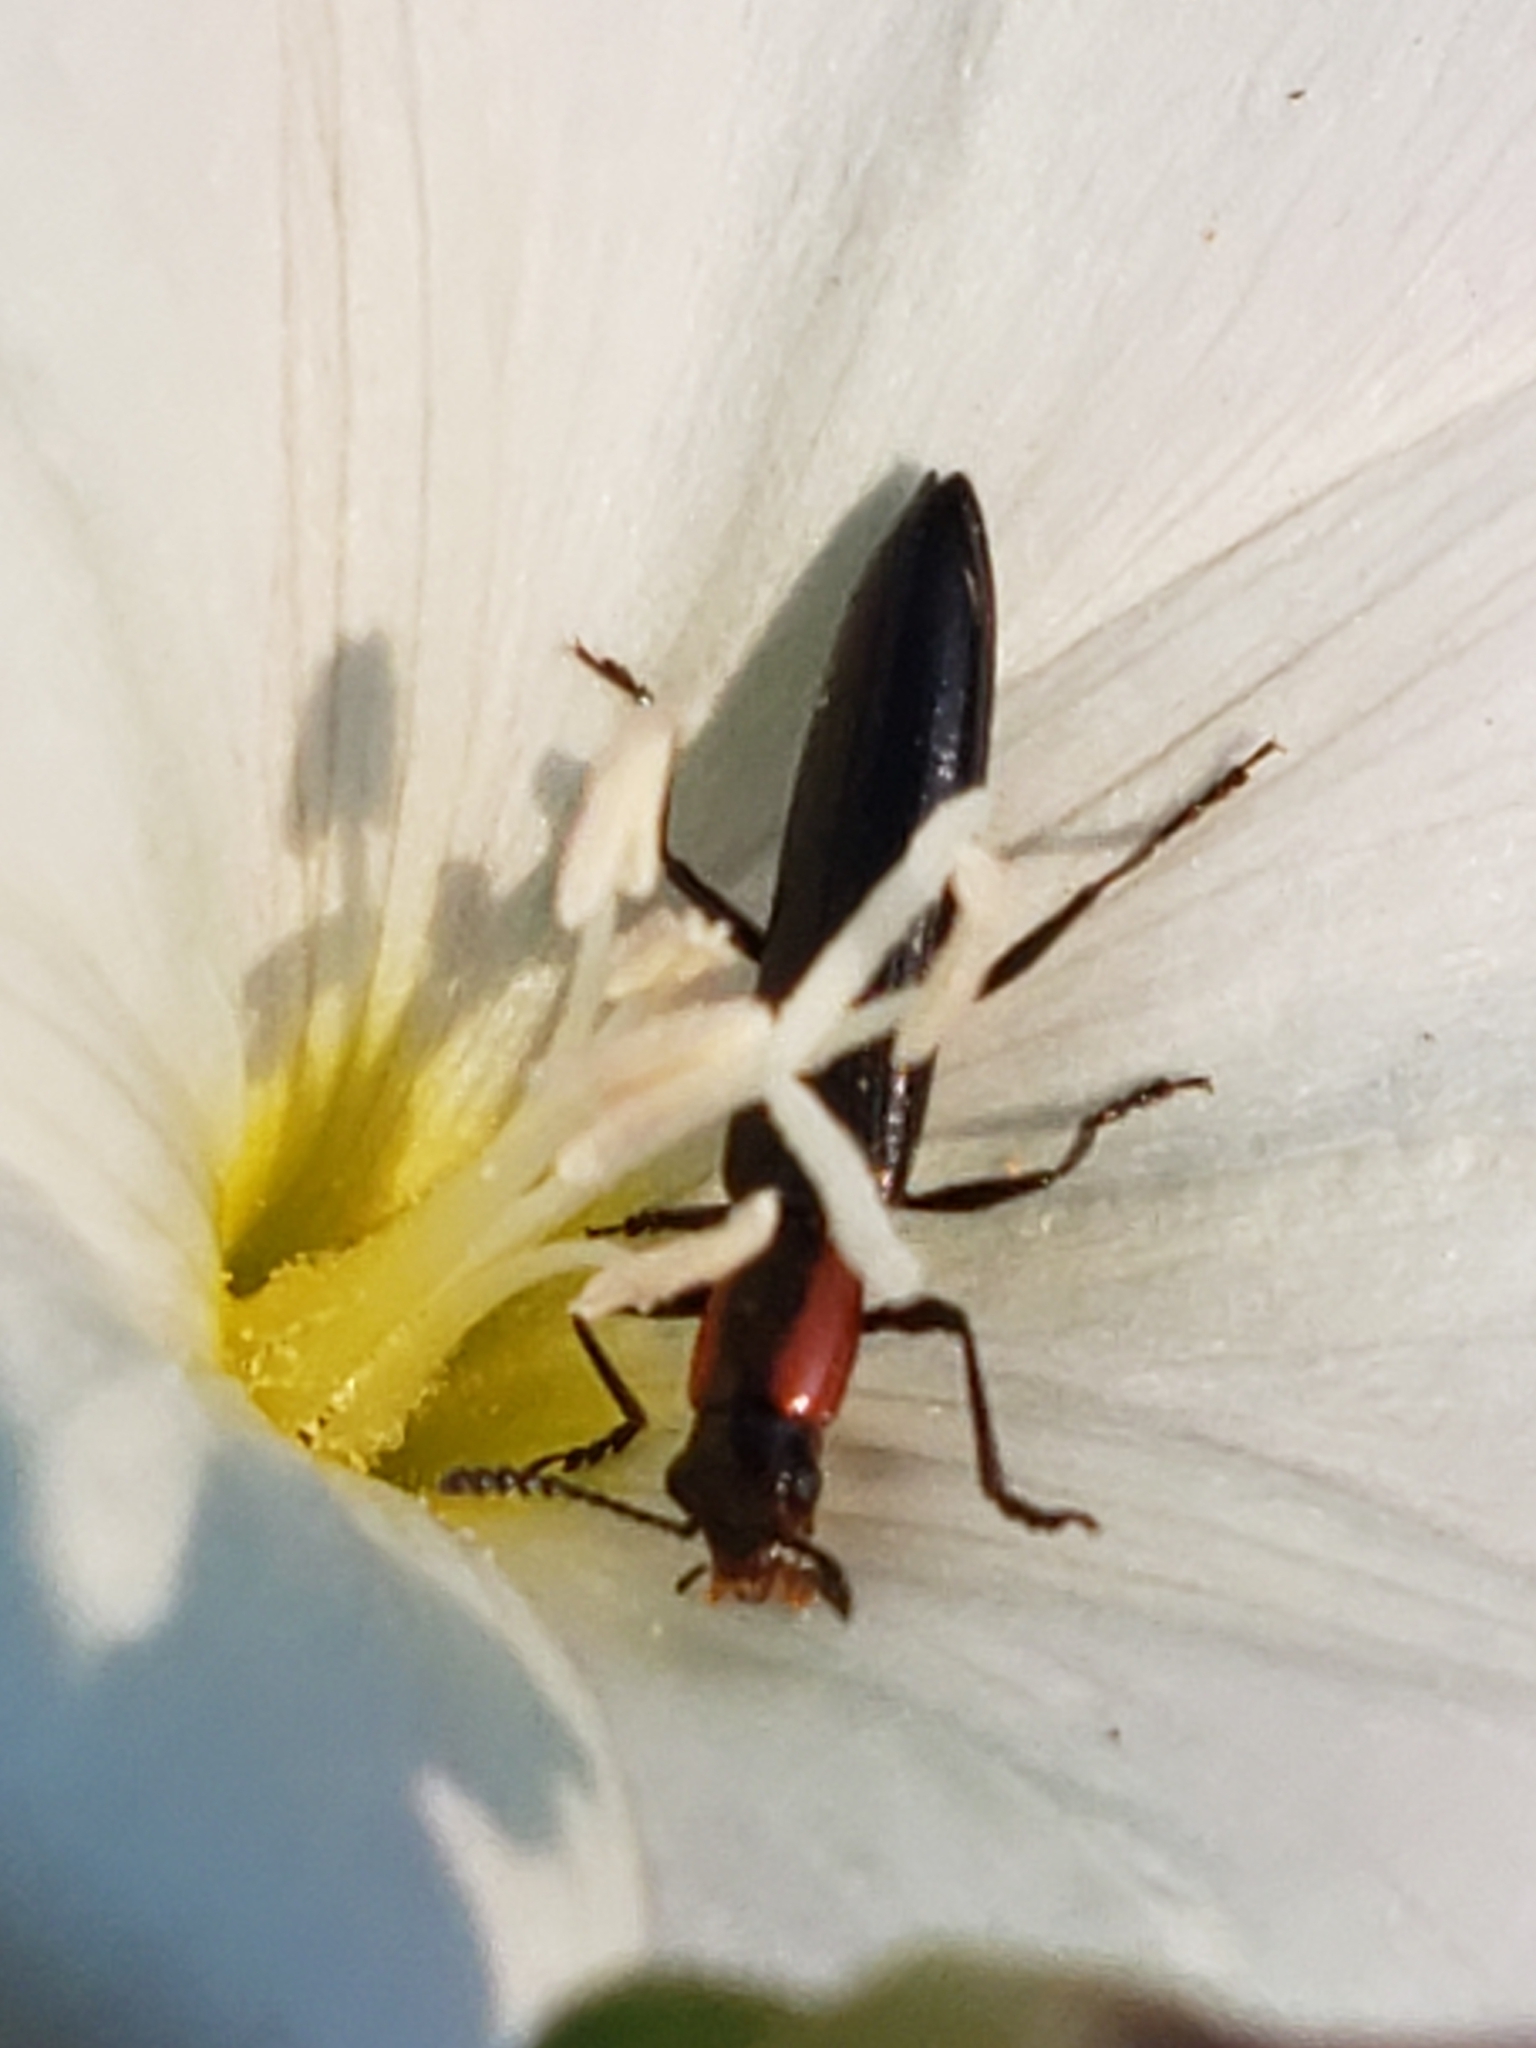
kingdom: Animalia
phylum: Arthropoda
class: Insecta
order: Coleoptera
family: Erotylidae
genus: Acropteroxys
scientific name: Acropteroxys gracilis
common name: Slender lizard beetle
